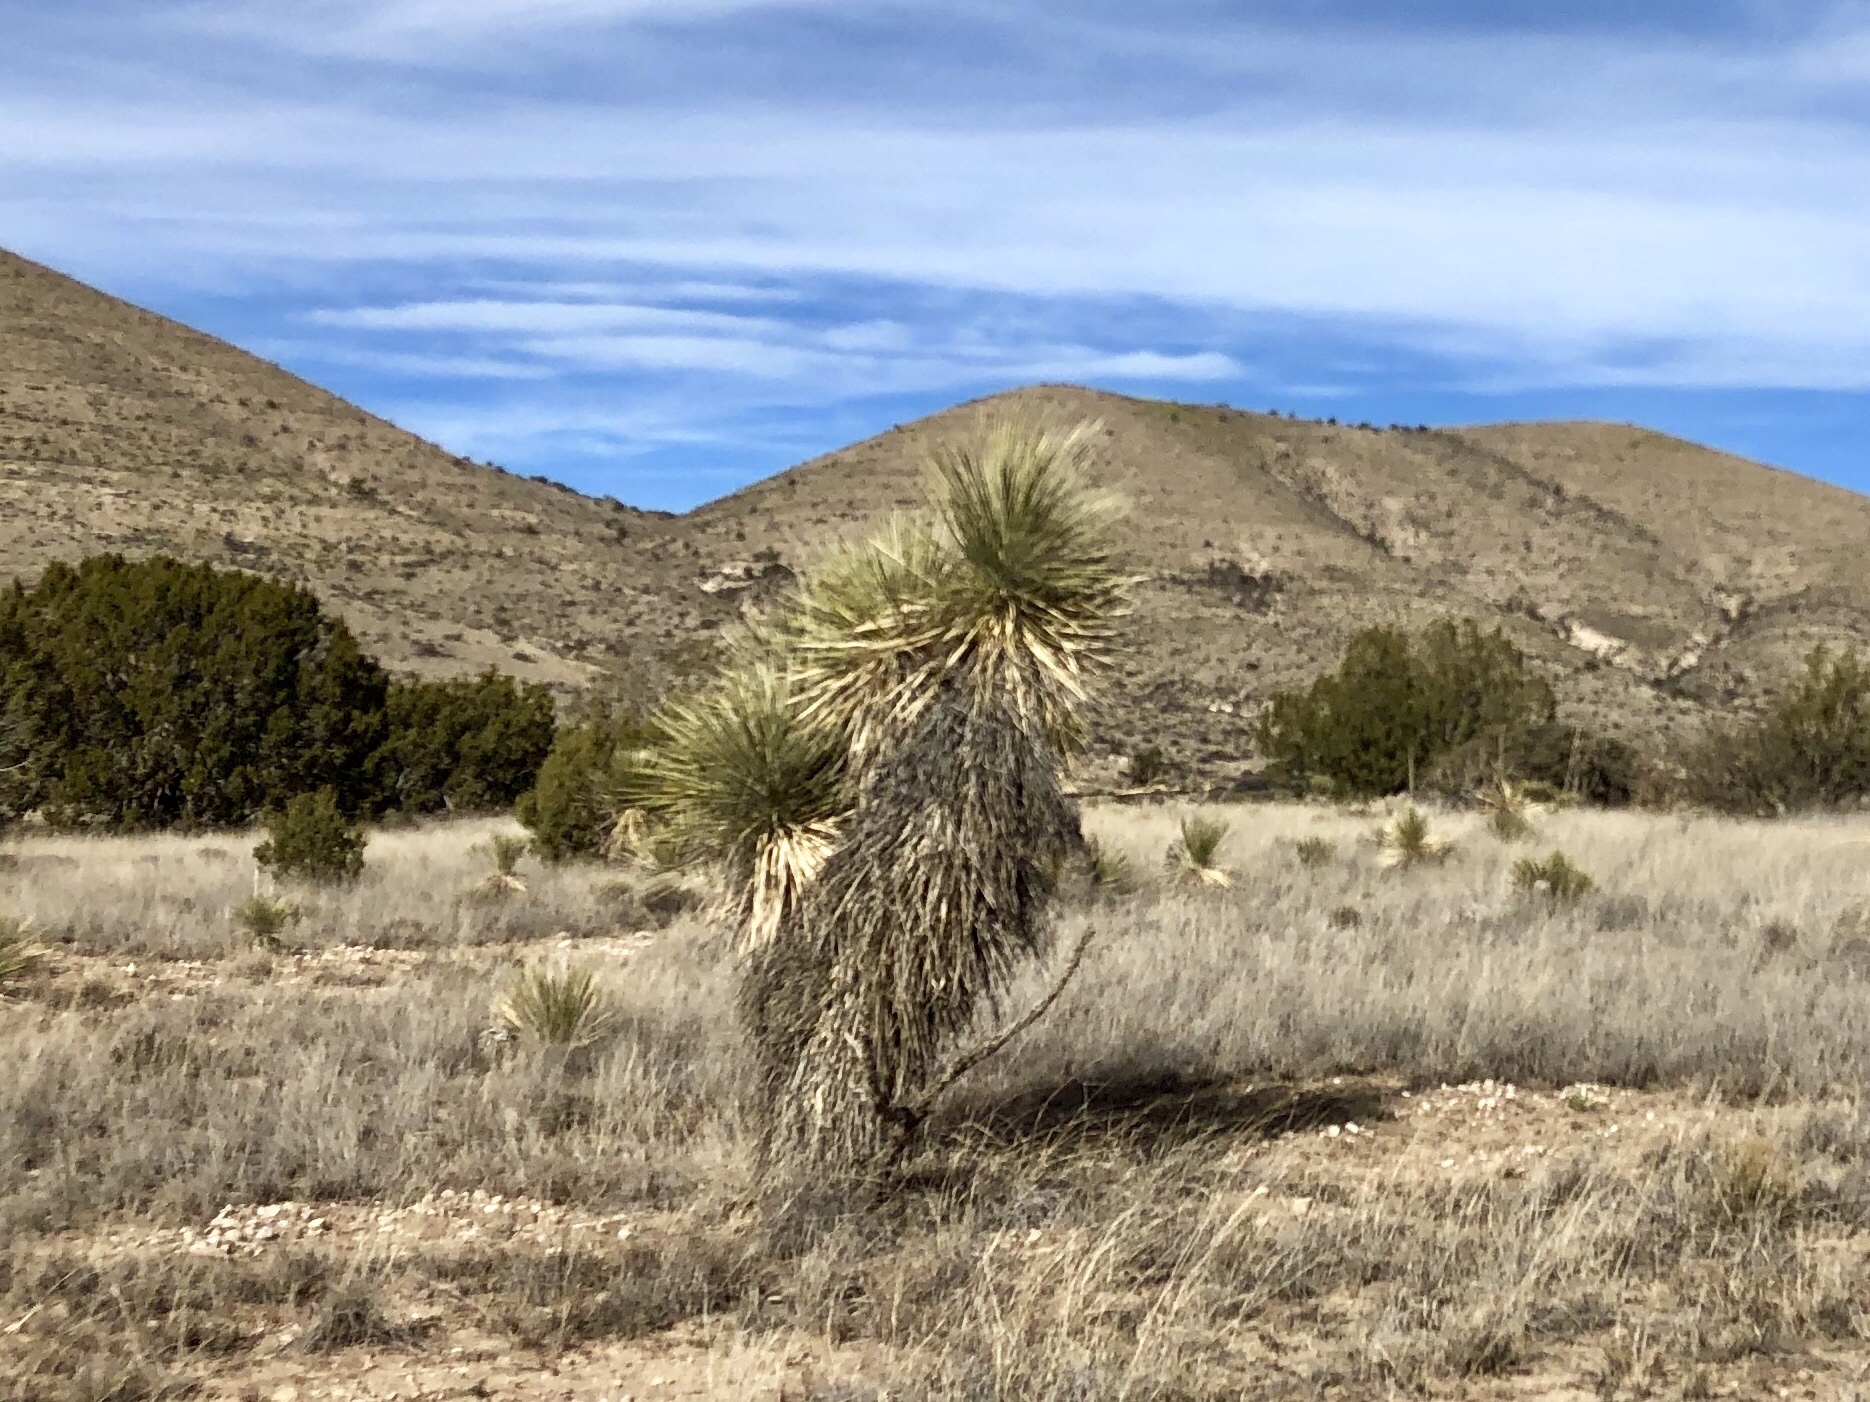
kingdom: Plantae
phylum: Tracheophyta
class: Liliopsida
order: Asparagales
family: Asparagaceae
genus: Yucca
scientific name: Yucca elata
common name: Palmella
